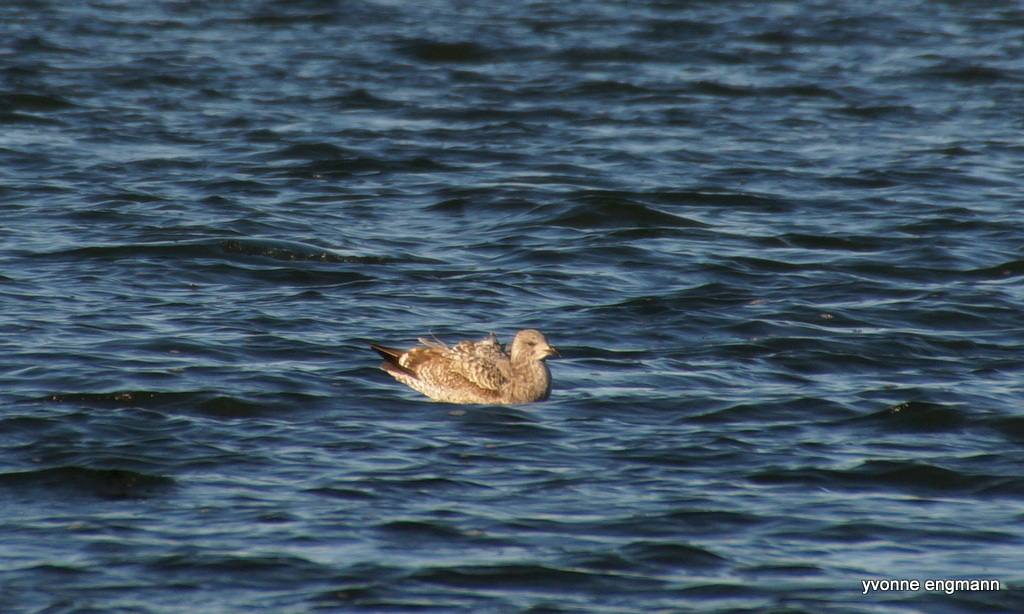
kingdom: Animalia
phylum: Chordata
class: Aves
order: Charadriiformes
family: Laridae
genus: Larus
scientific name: Larus argentatus
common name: Herring gull
